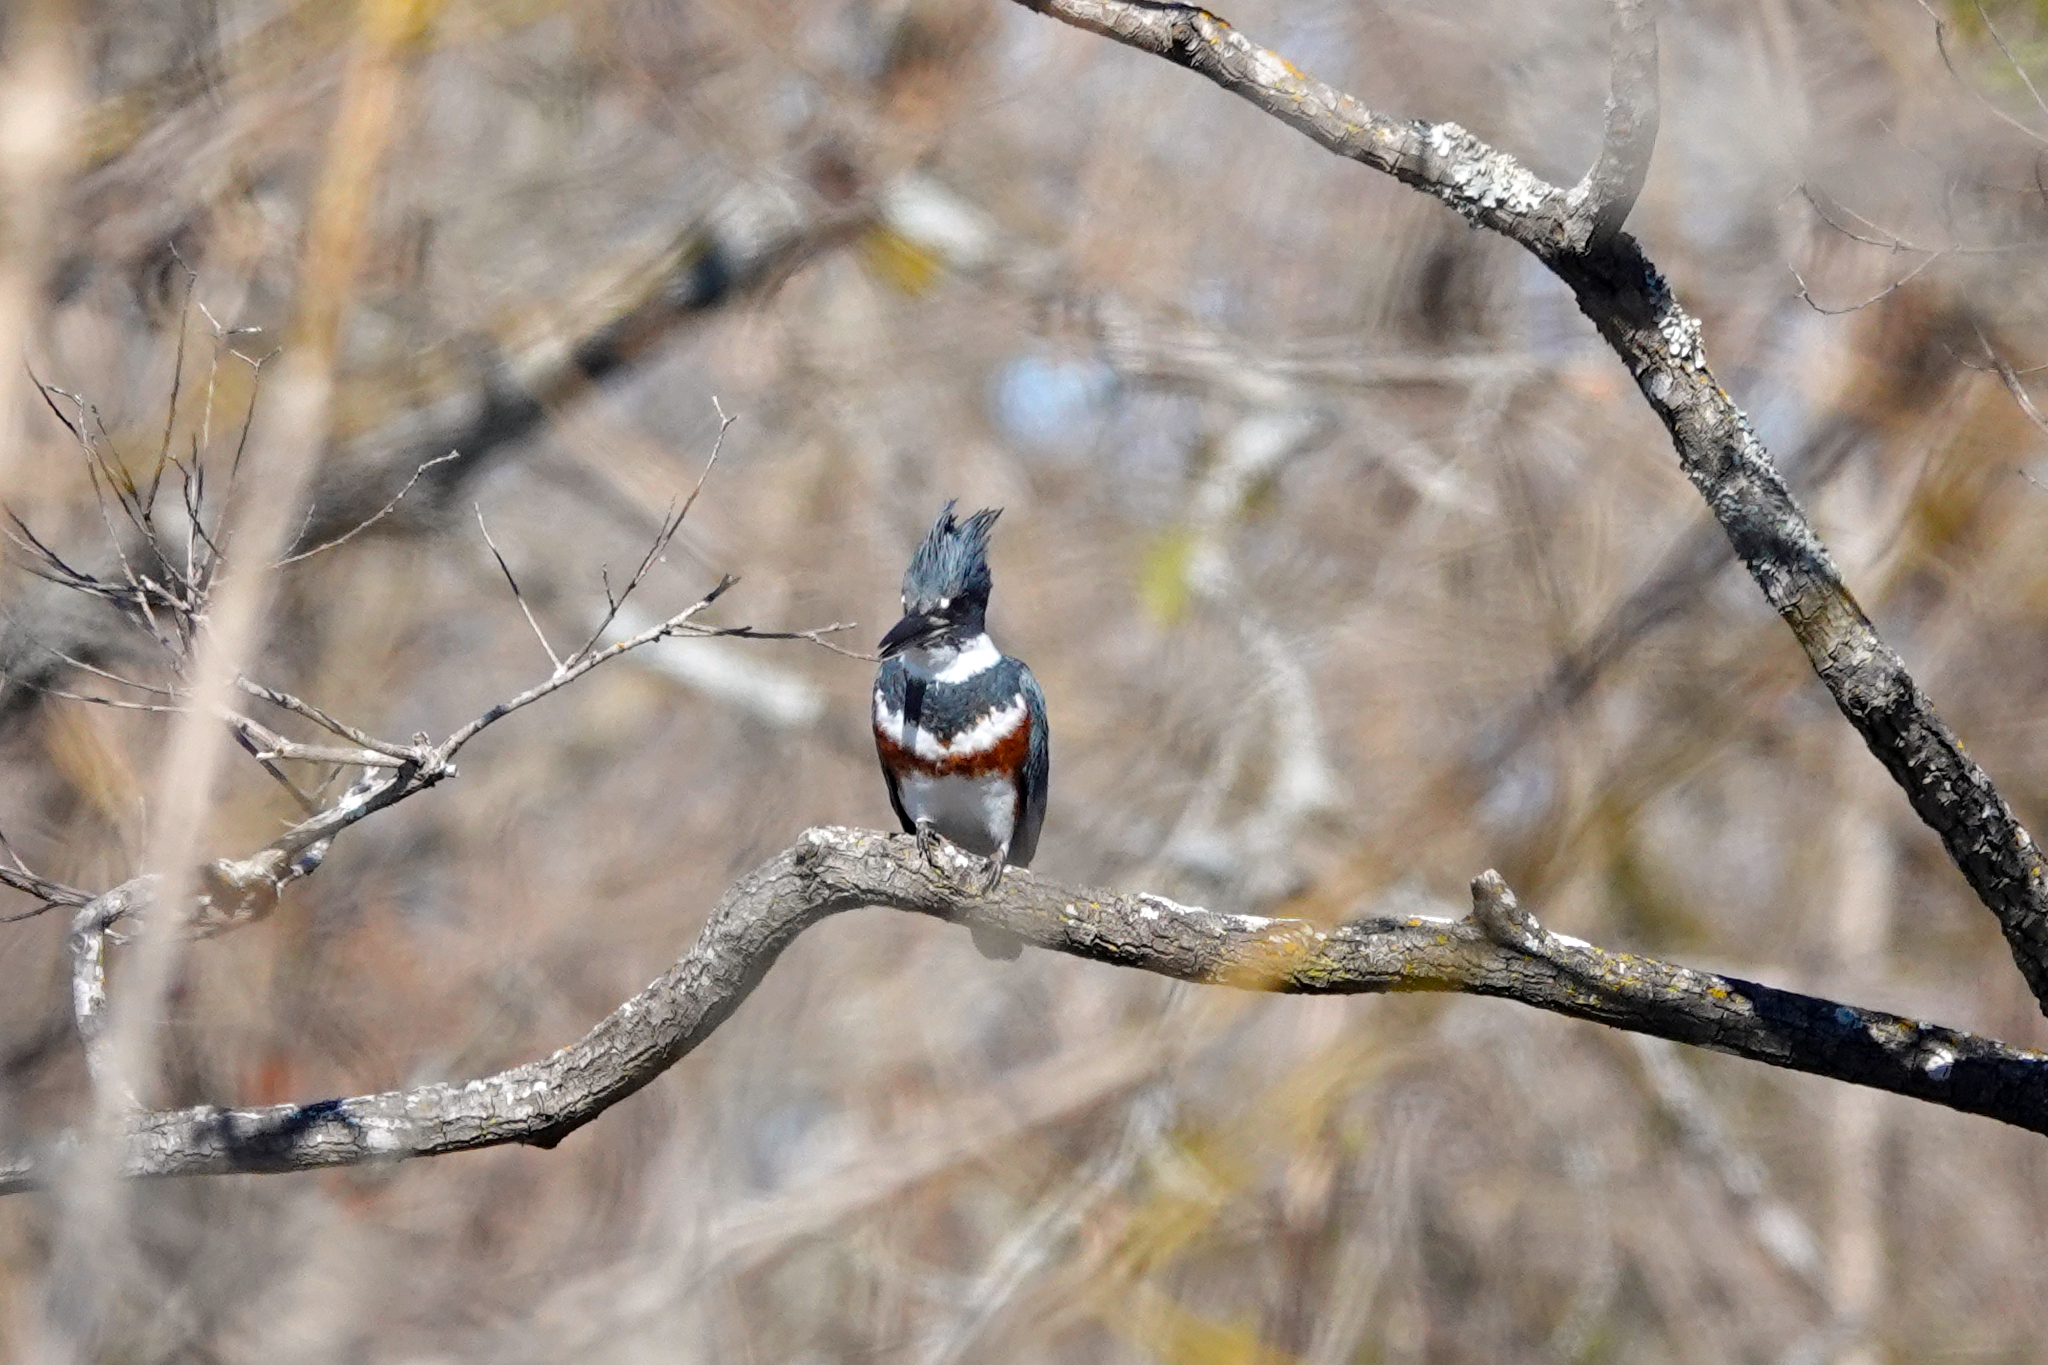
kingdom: Animalia
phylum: Chordata
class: Aves
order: Coraciiformes
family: Alcedinidae
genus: Megaceryle
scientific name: Megaceryle alcyon
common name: Belted kingfisher
